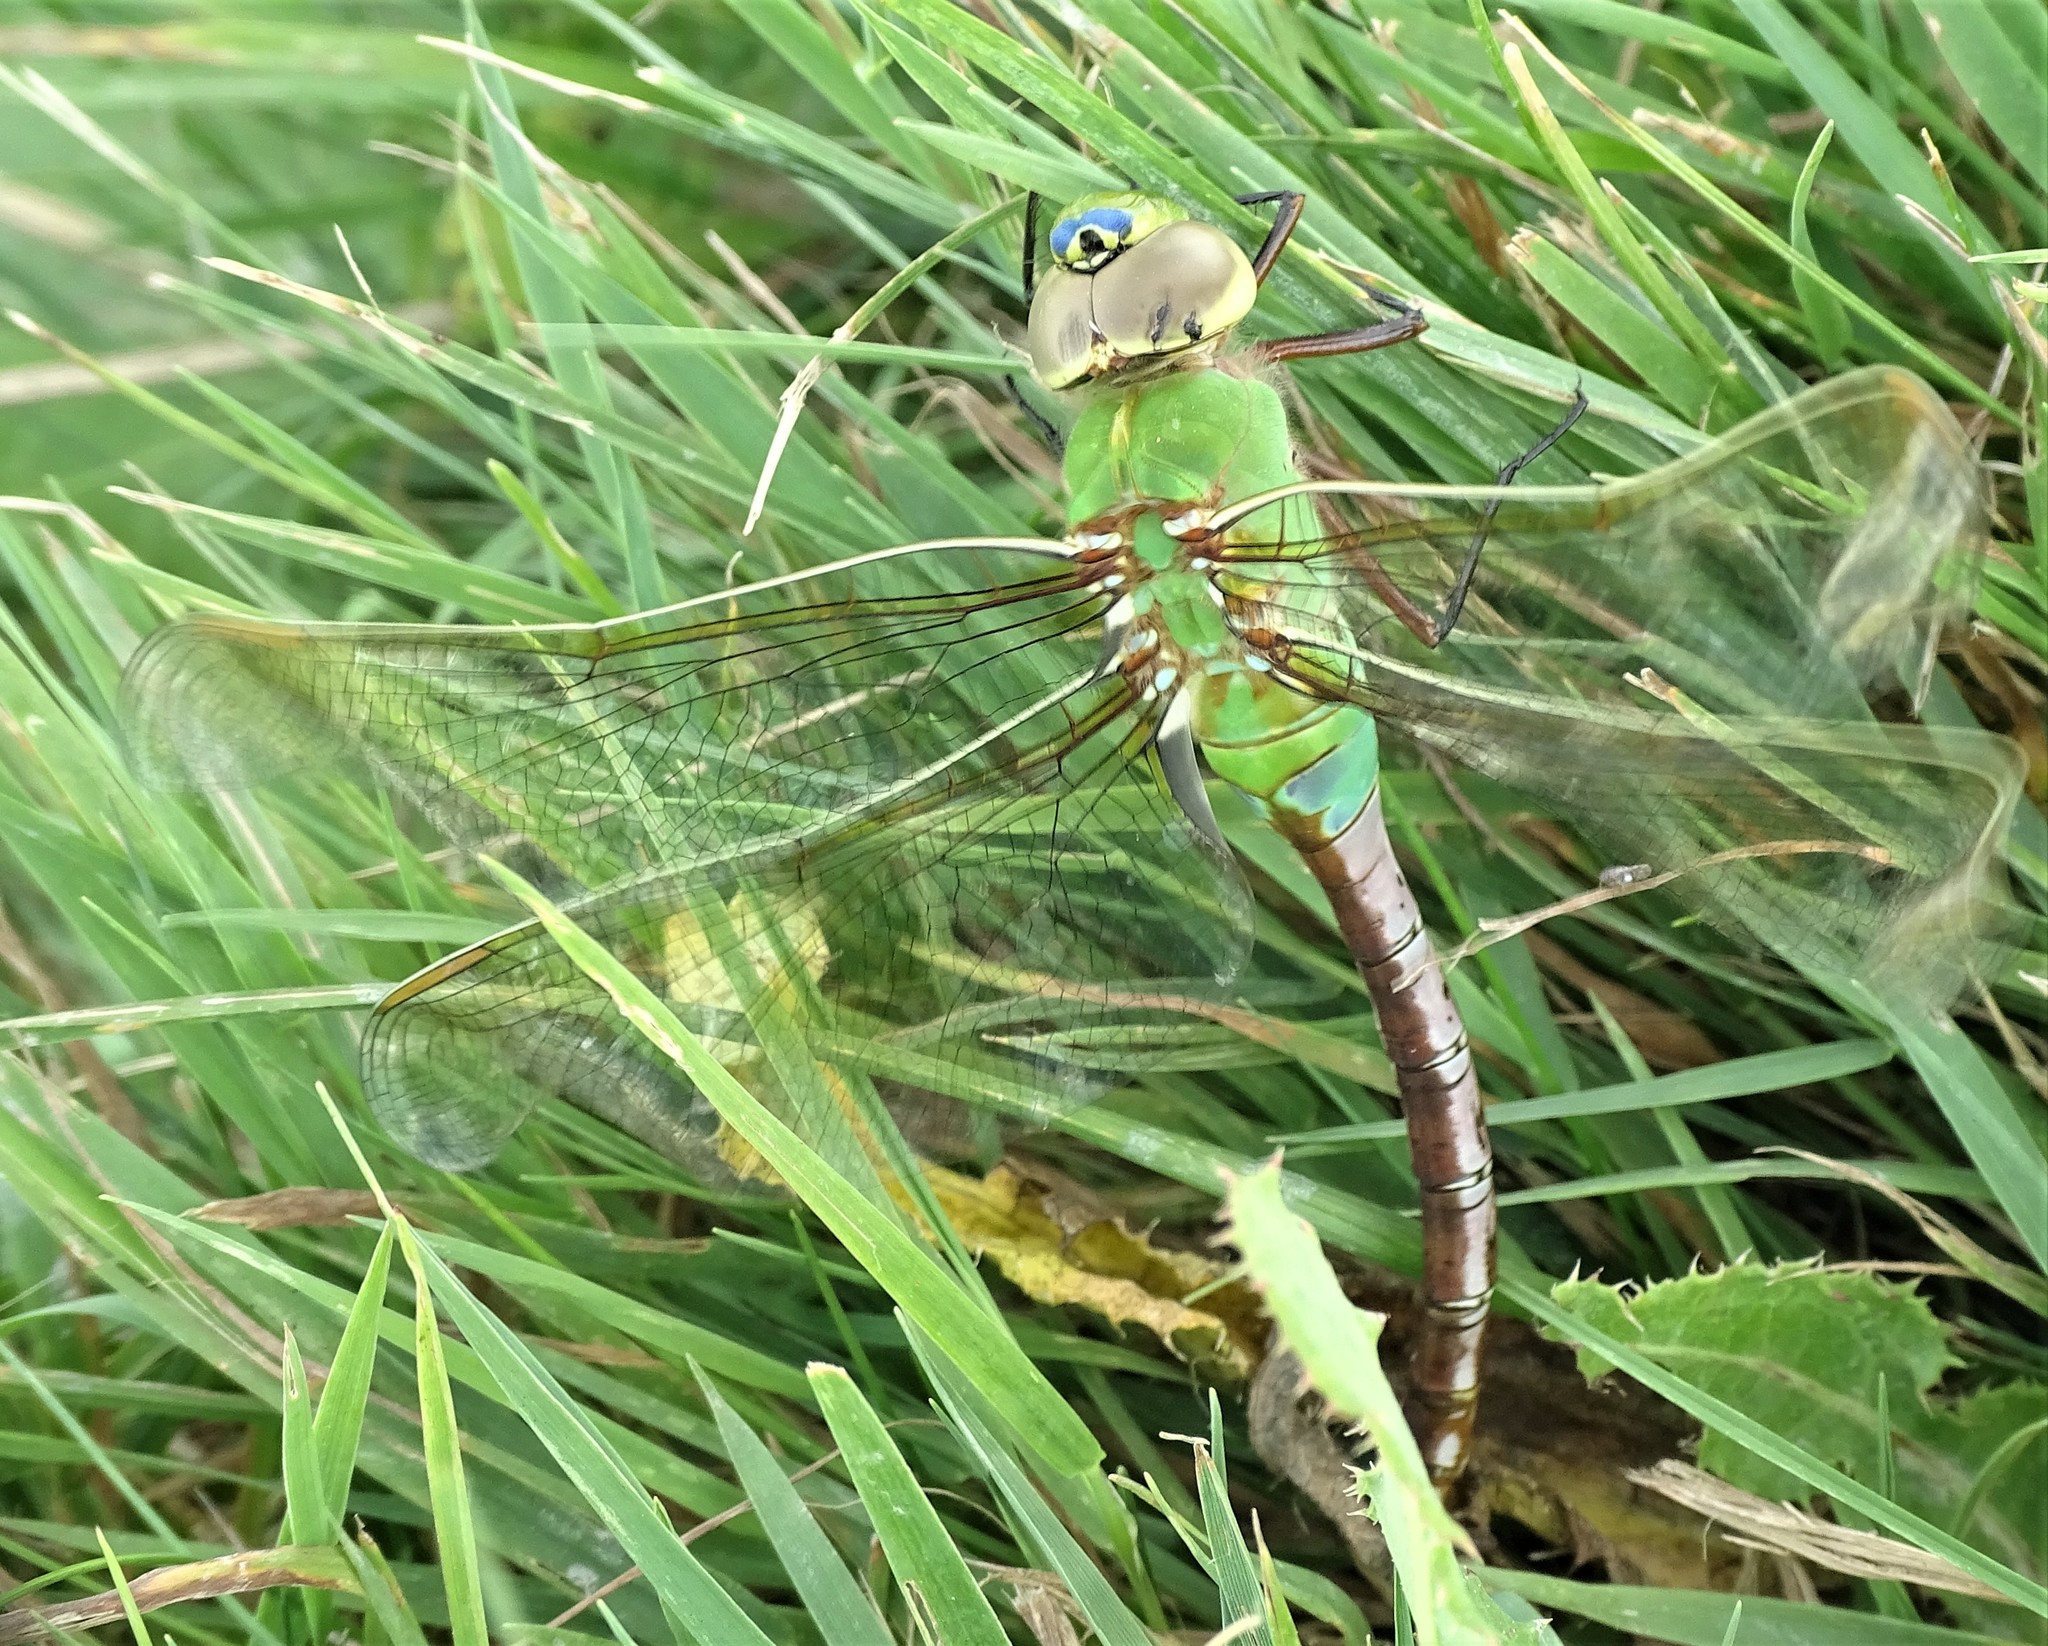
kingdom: Animalia
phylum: Arthropoda
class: Insecta
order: Odonata
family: Aeshnidae
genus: Anax
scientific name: Anax junius
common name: Common green darner
